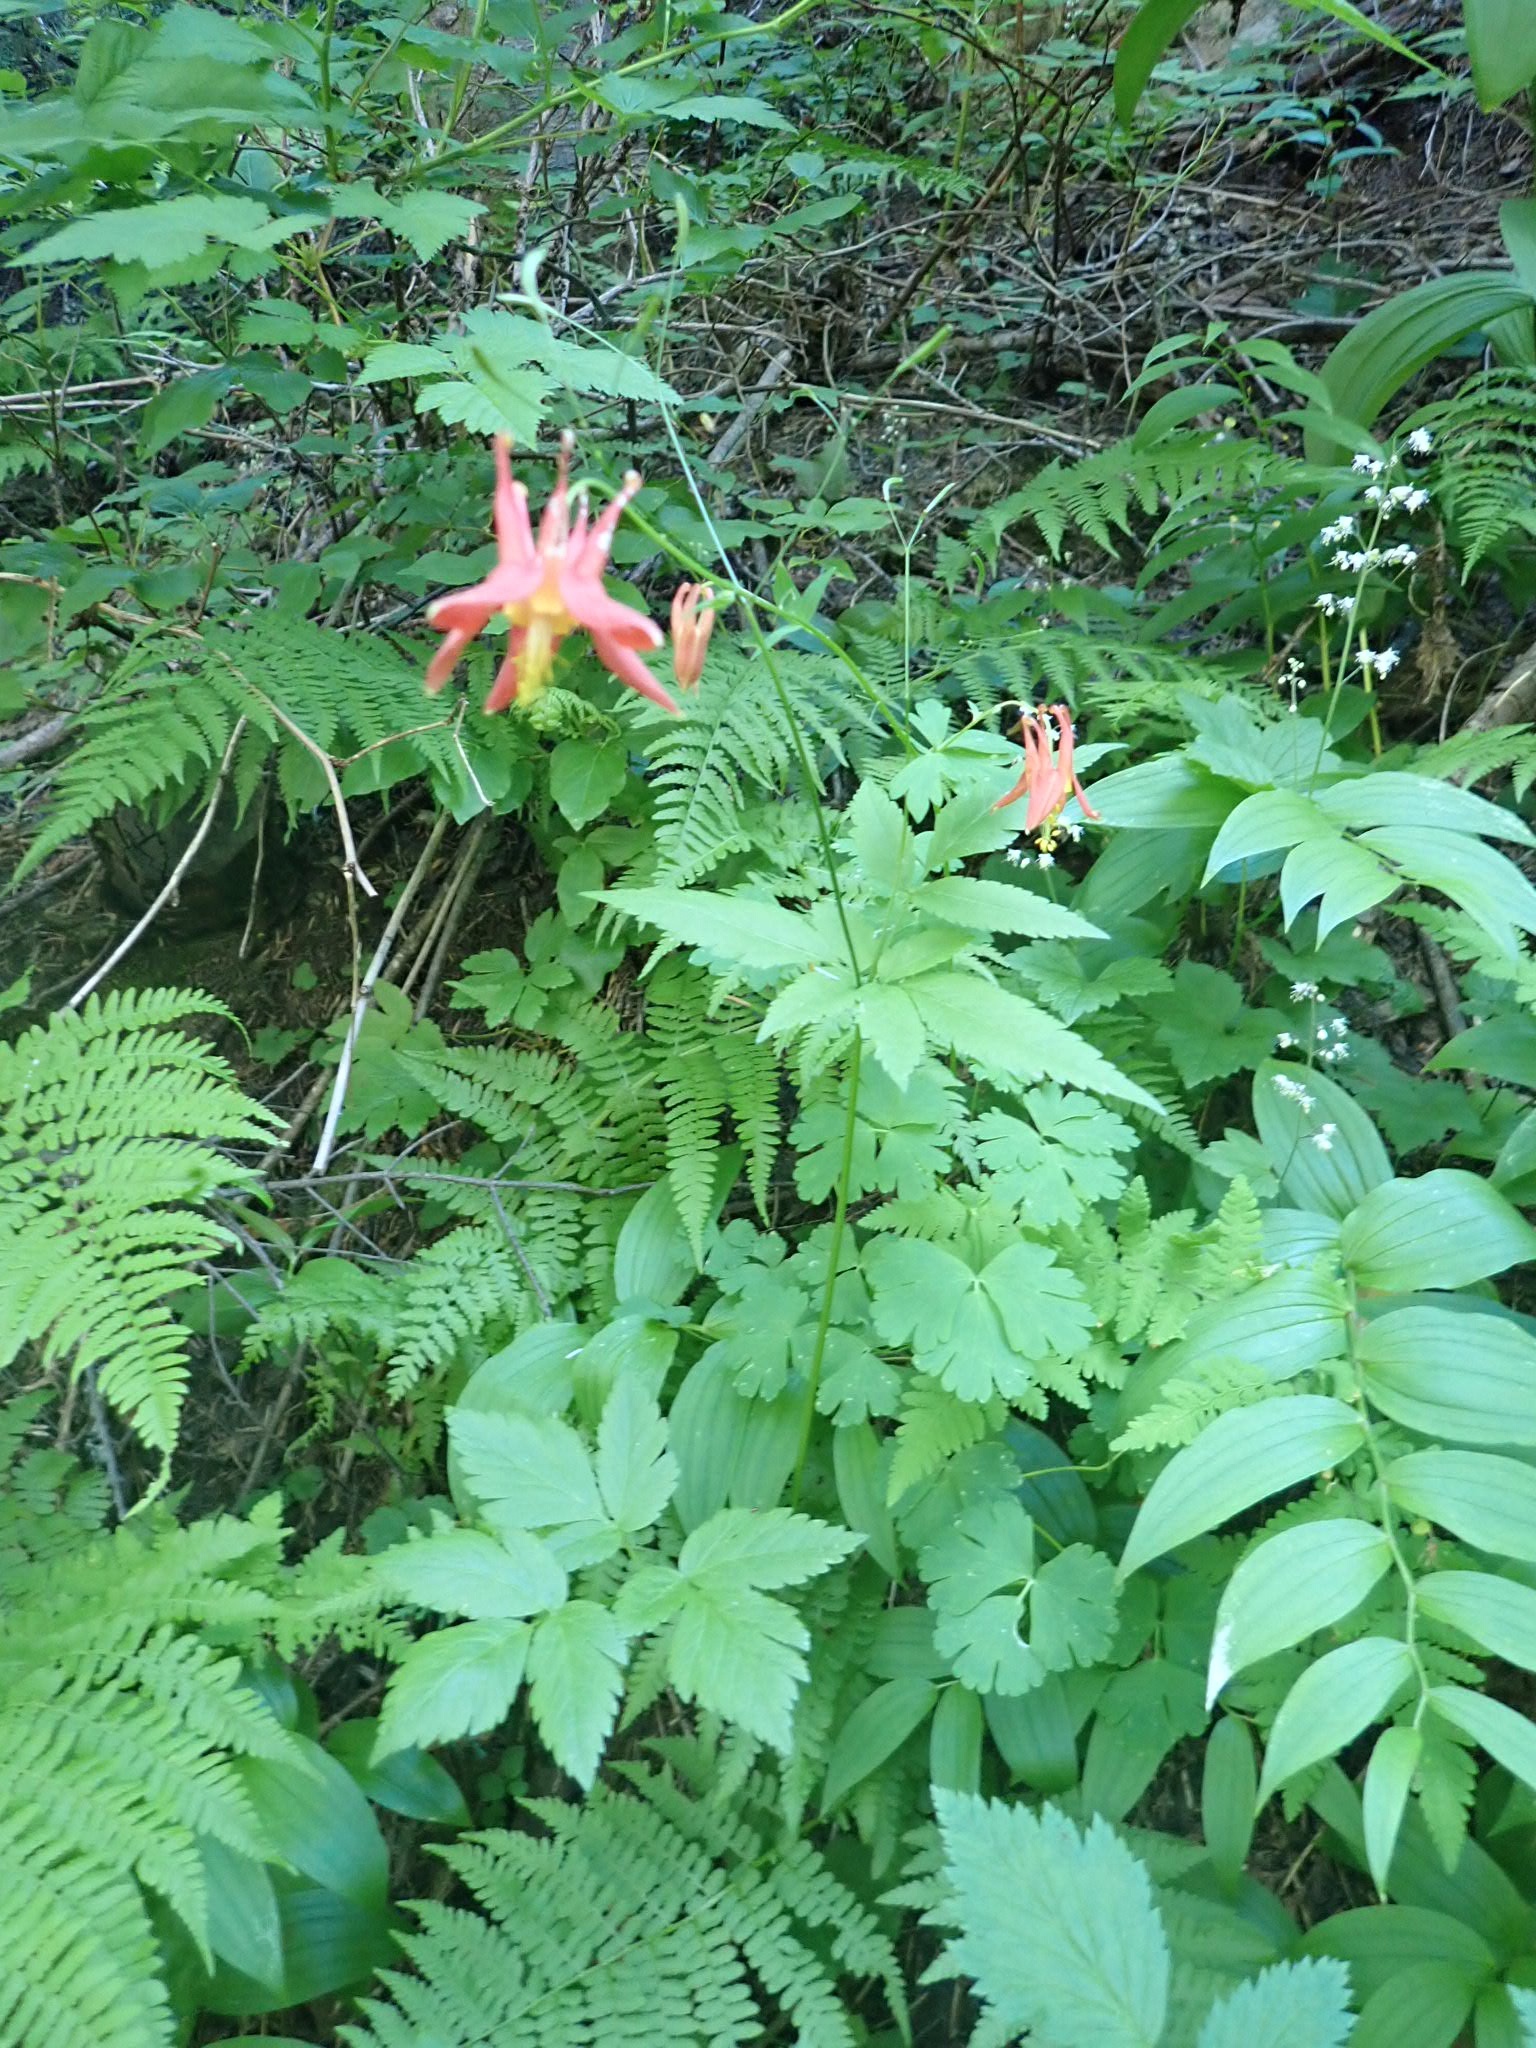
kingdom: Plantae
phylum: Tracheophyta
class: Magnoliopsida
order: Ranunculales
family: Ranunculaceae
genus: Aquilegia
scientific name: Aquilegia formosa
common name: Sitka columbine
